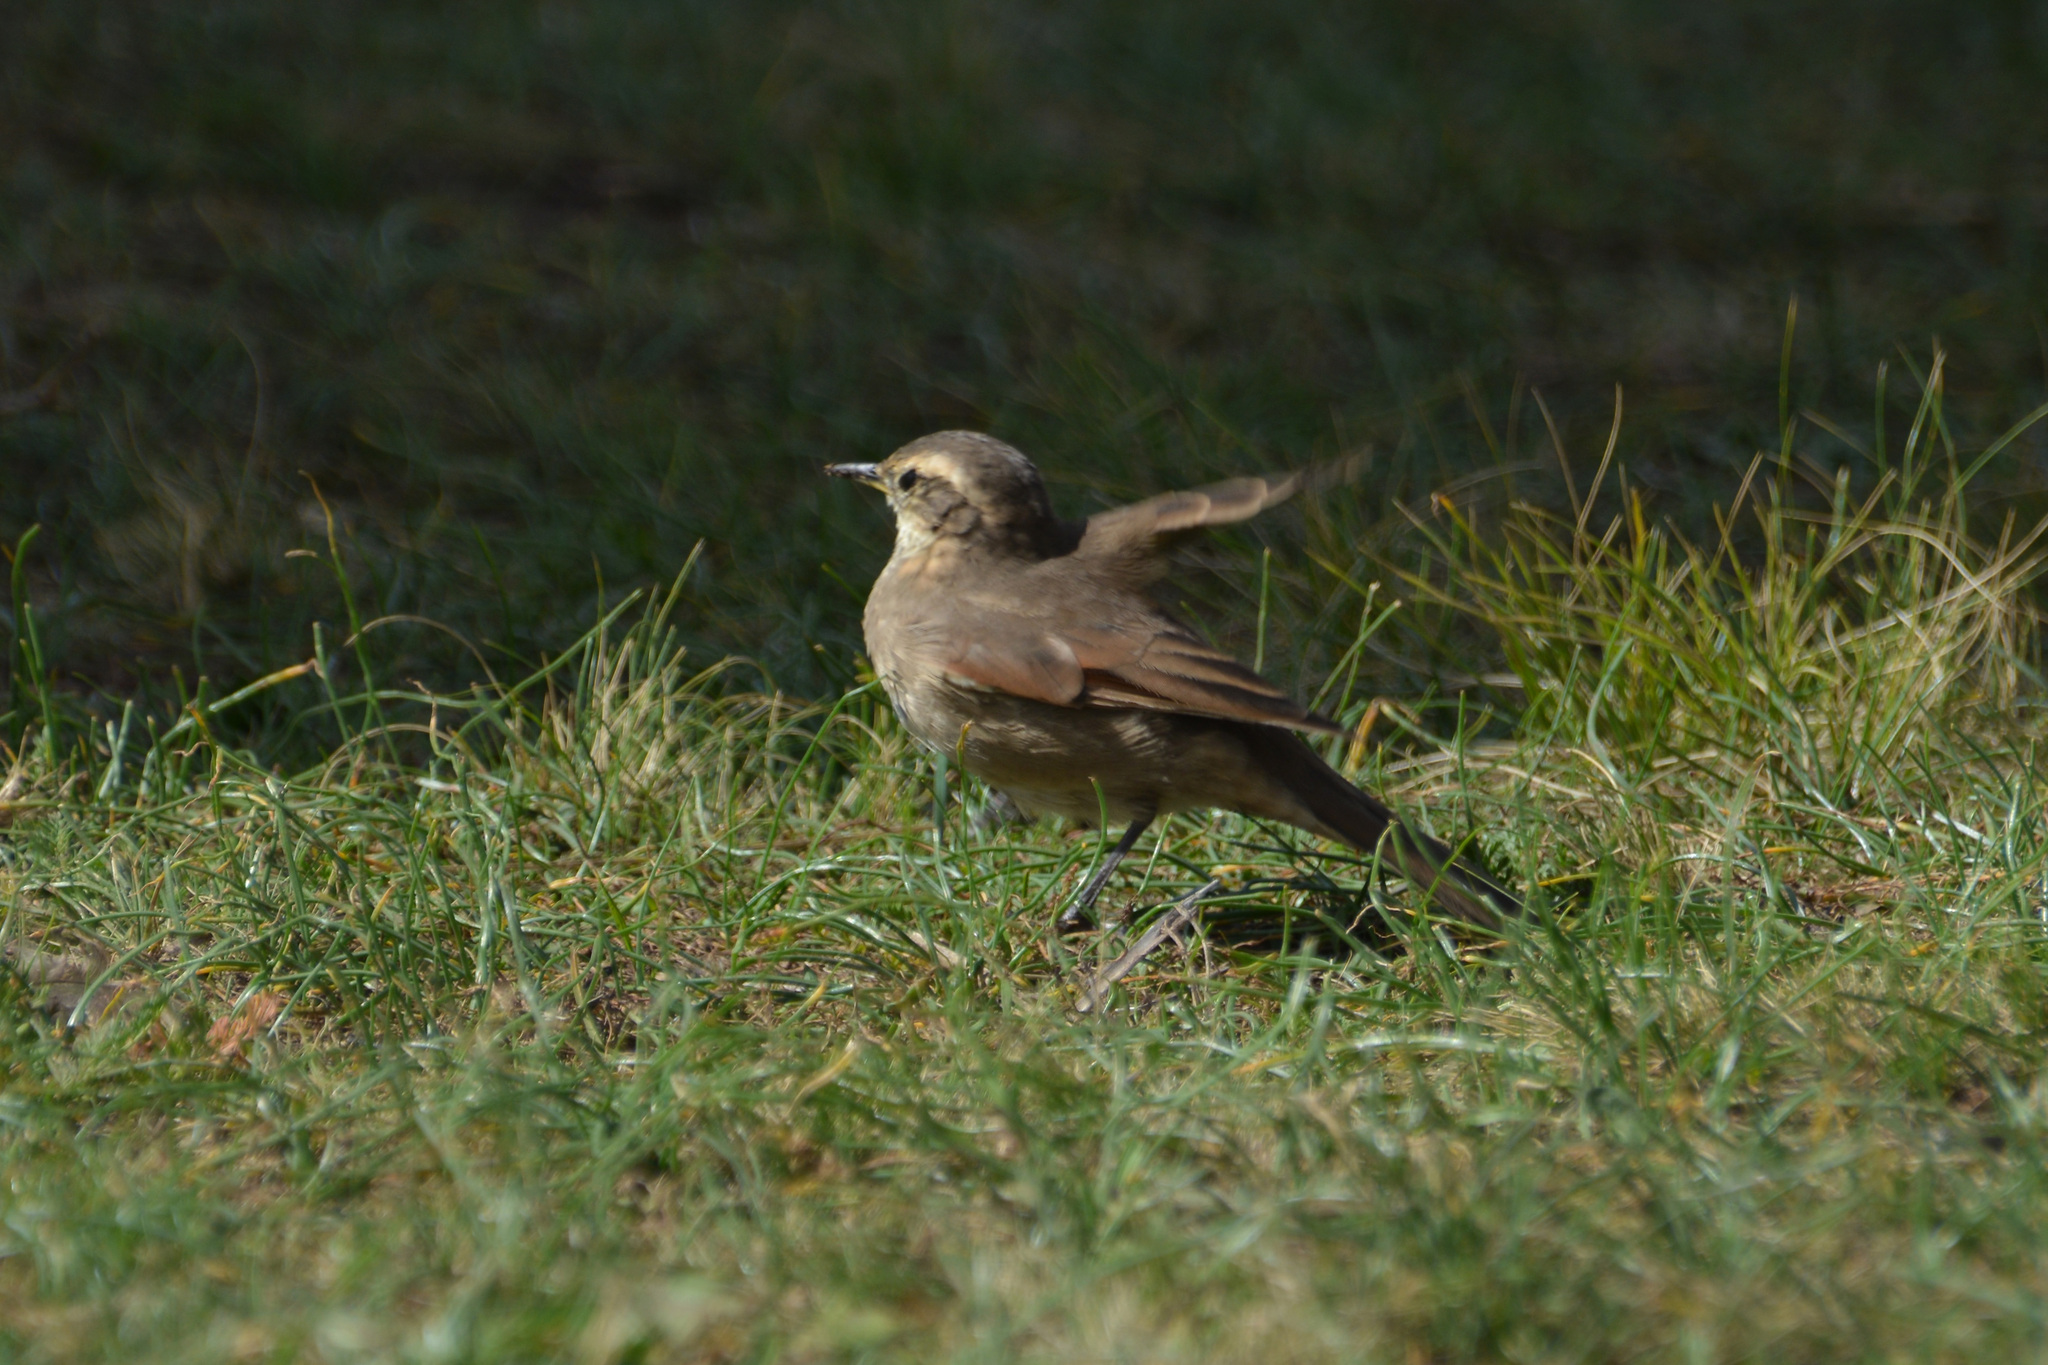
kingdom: Animalia
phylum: Chordata
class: Aves
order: Passeriformes
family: Furnariidae
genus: Cinclodes
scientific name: Cinclodes comechingonus
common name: Cordoba cinclodes
